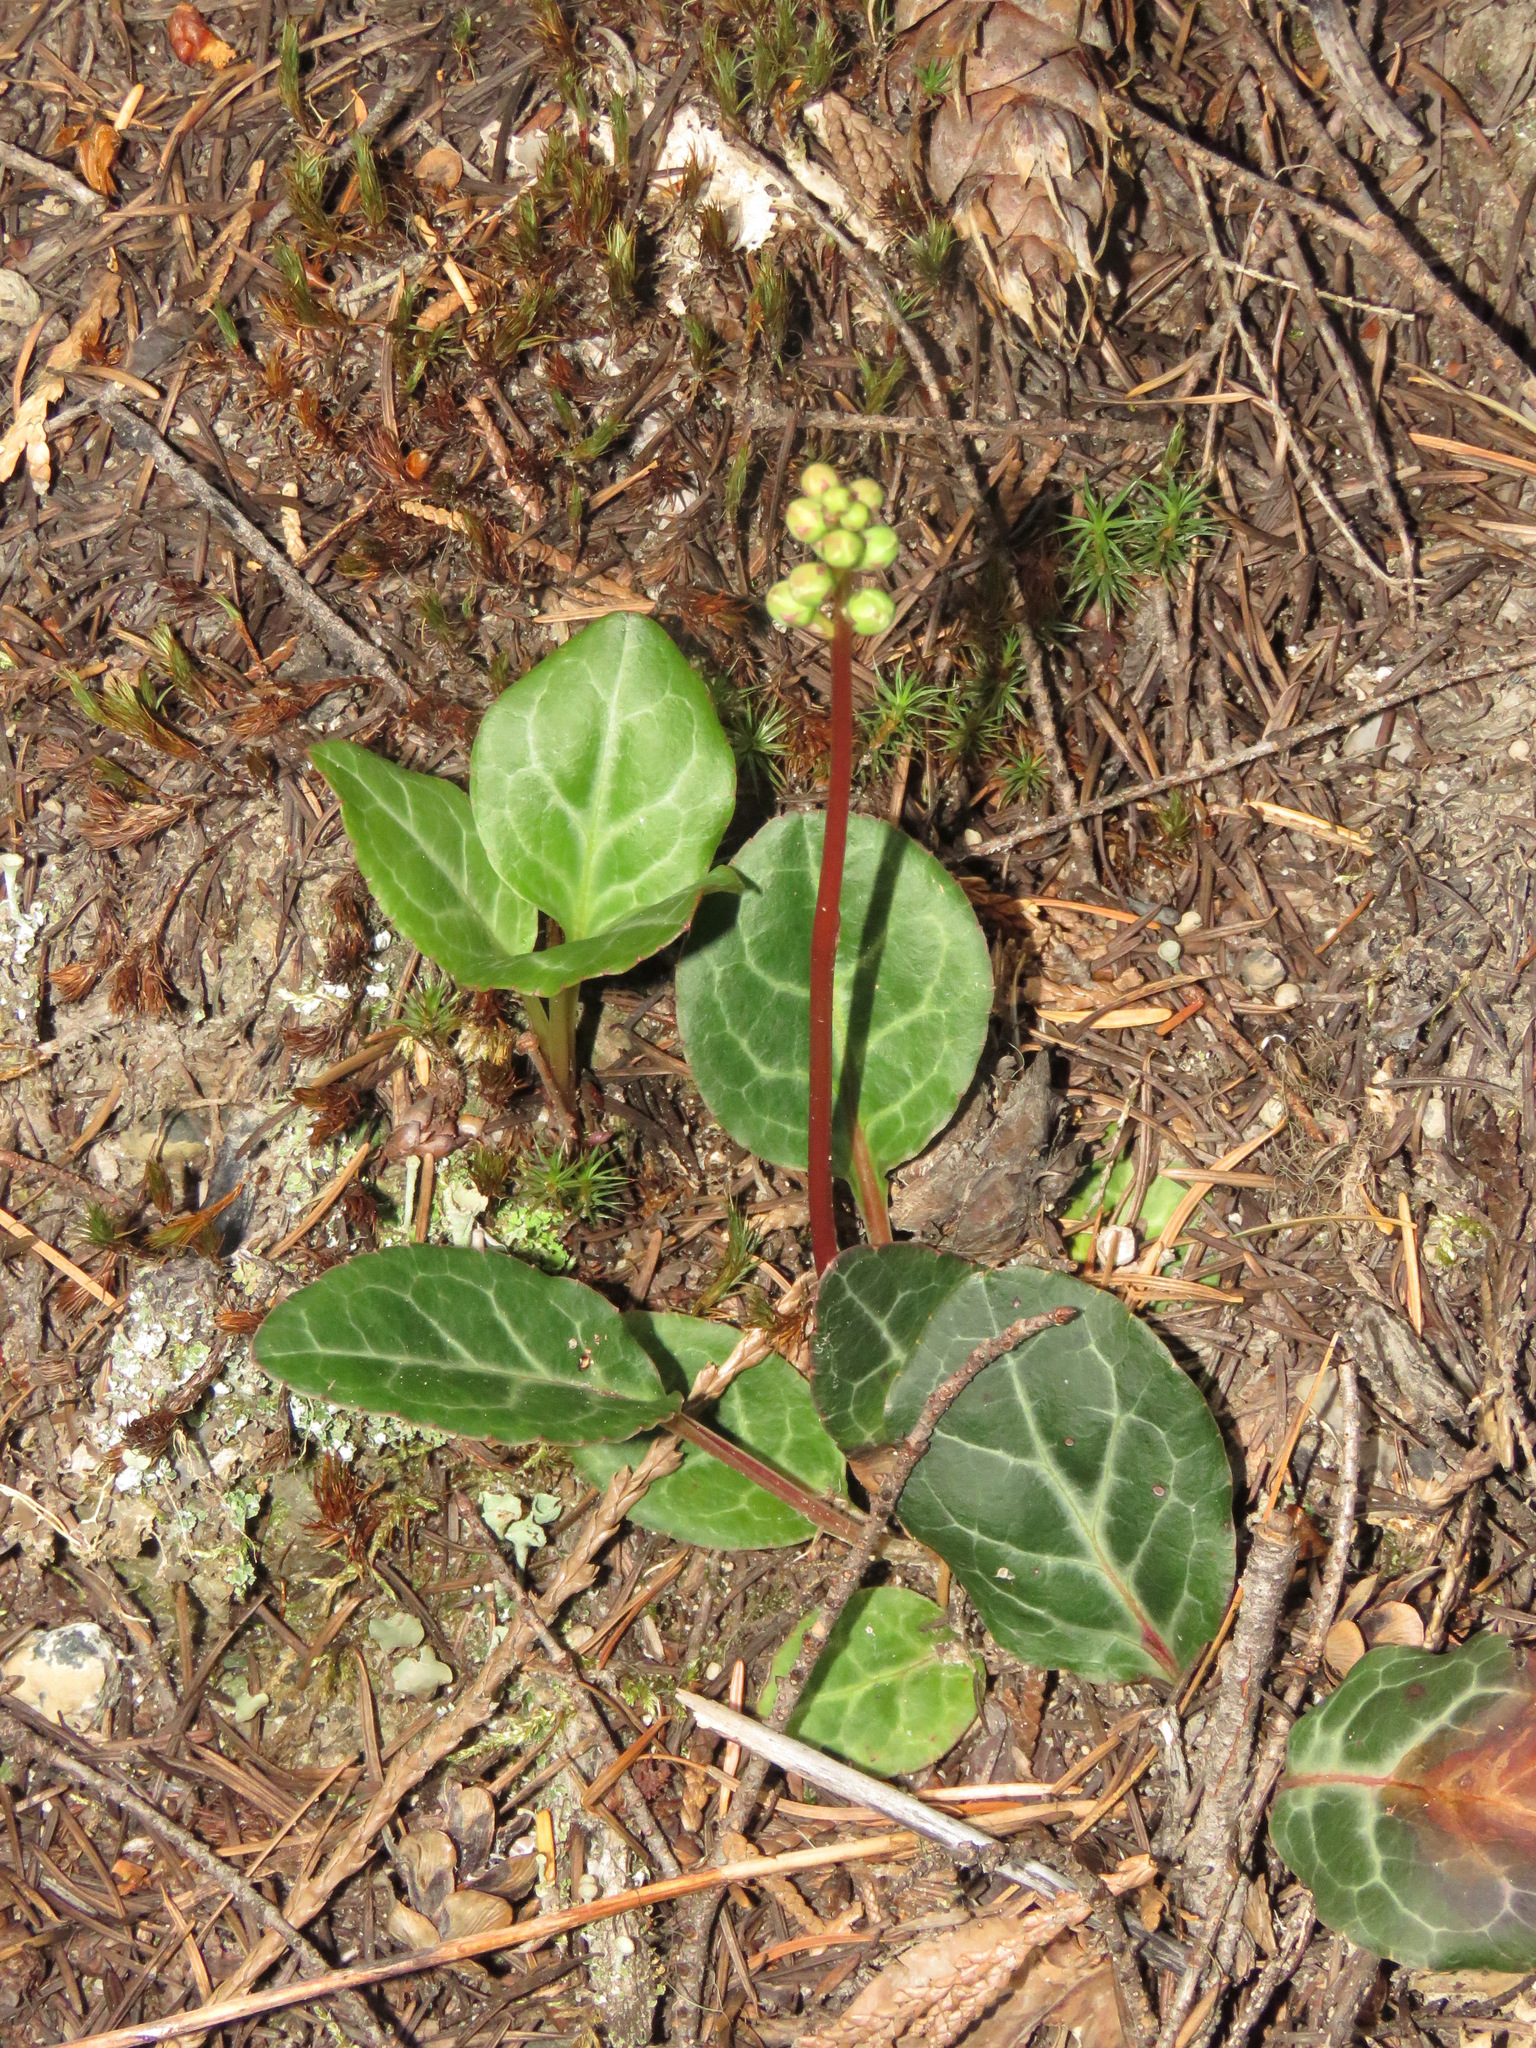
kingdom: Plantae
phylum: Tracheophyta
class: Magnoliopsida
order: Ericales
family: Ericaceae
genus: Pyrola
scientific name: Pyrola picta
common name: White-vein wintergreen
